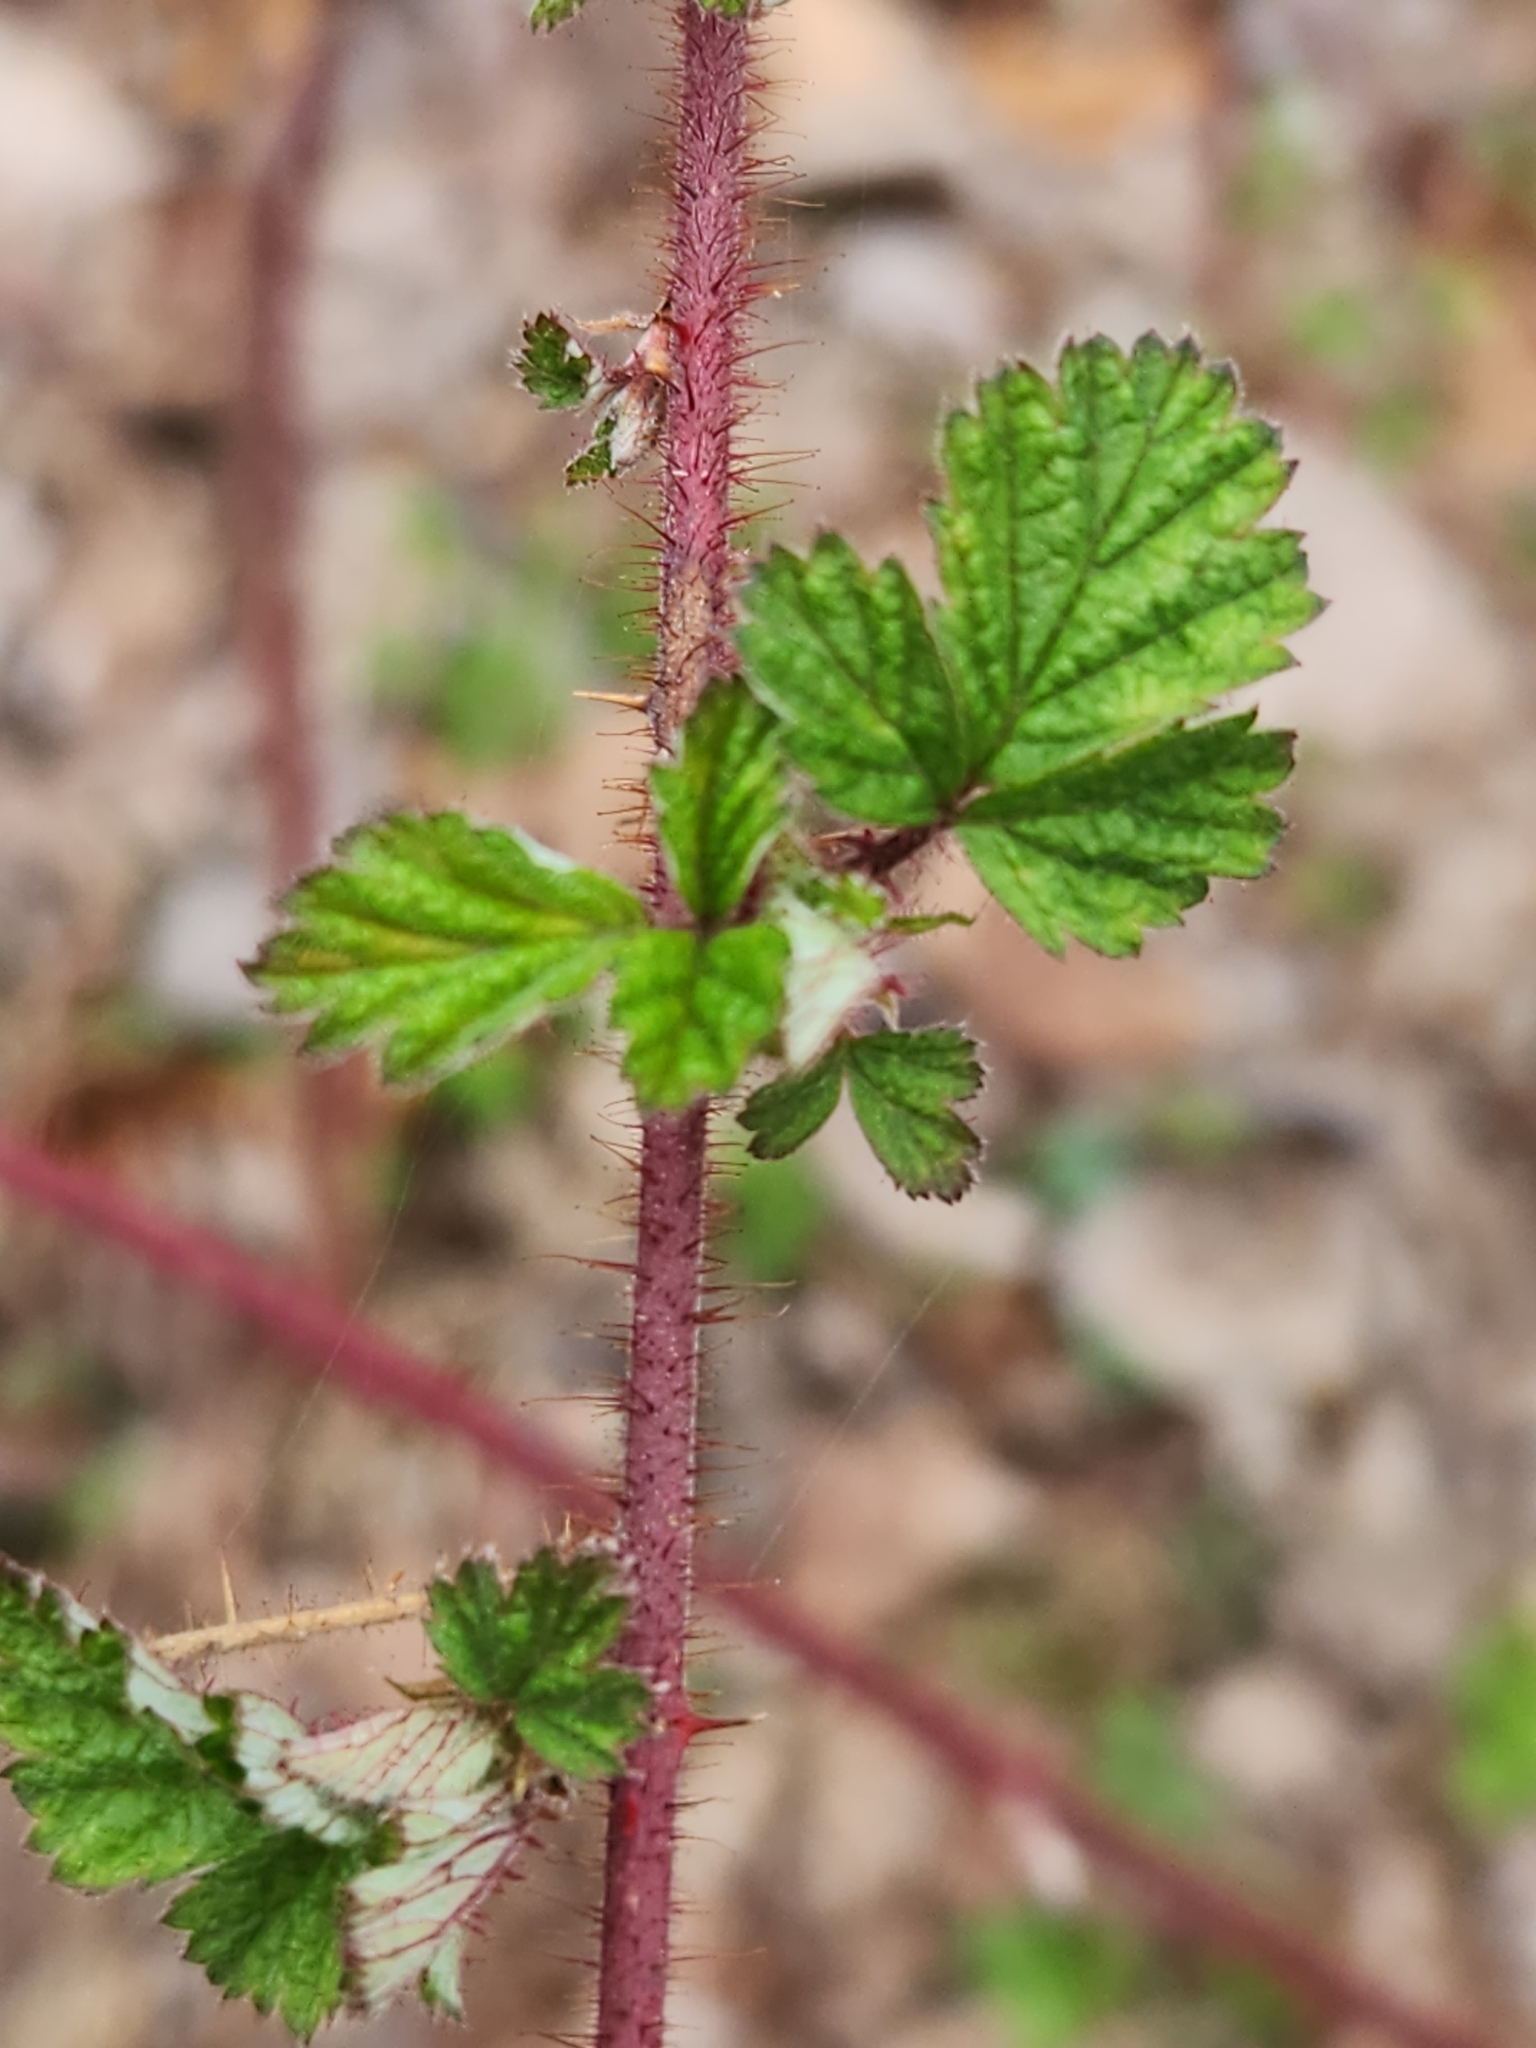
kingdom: Plantae
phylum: Tracheophyta
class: Magnoliopsida
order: Rosales
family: Rosaceae
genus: Rubus
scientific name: Rubus phoenicolasius
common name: Japanese wineberry
